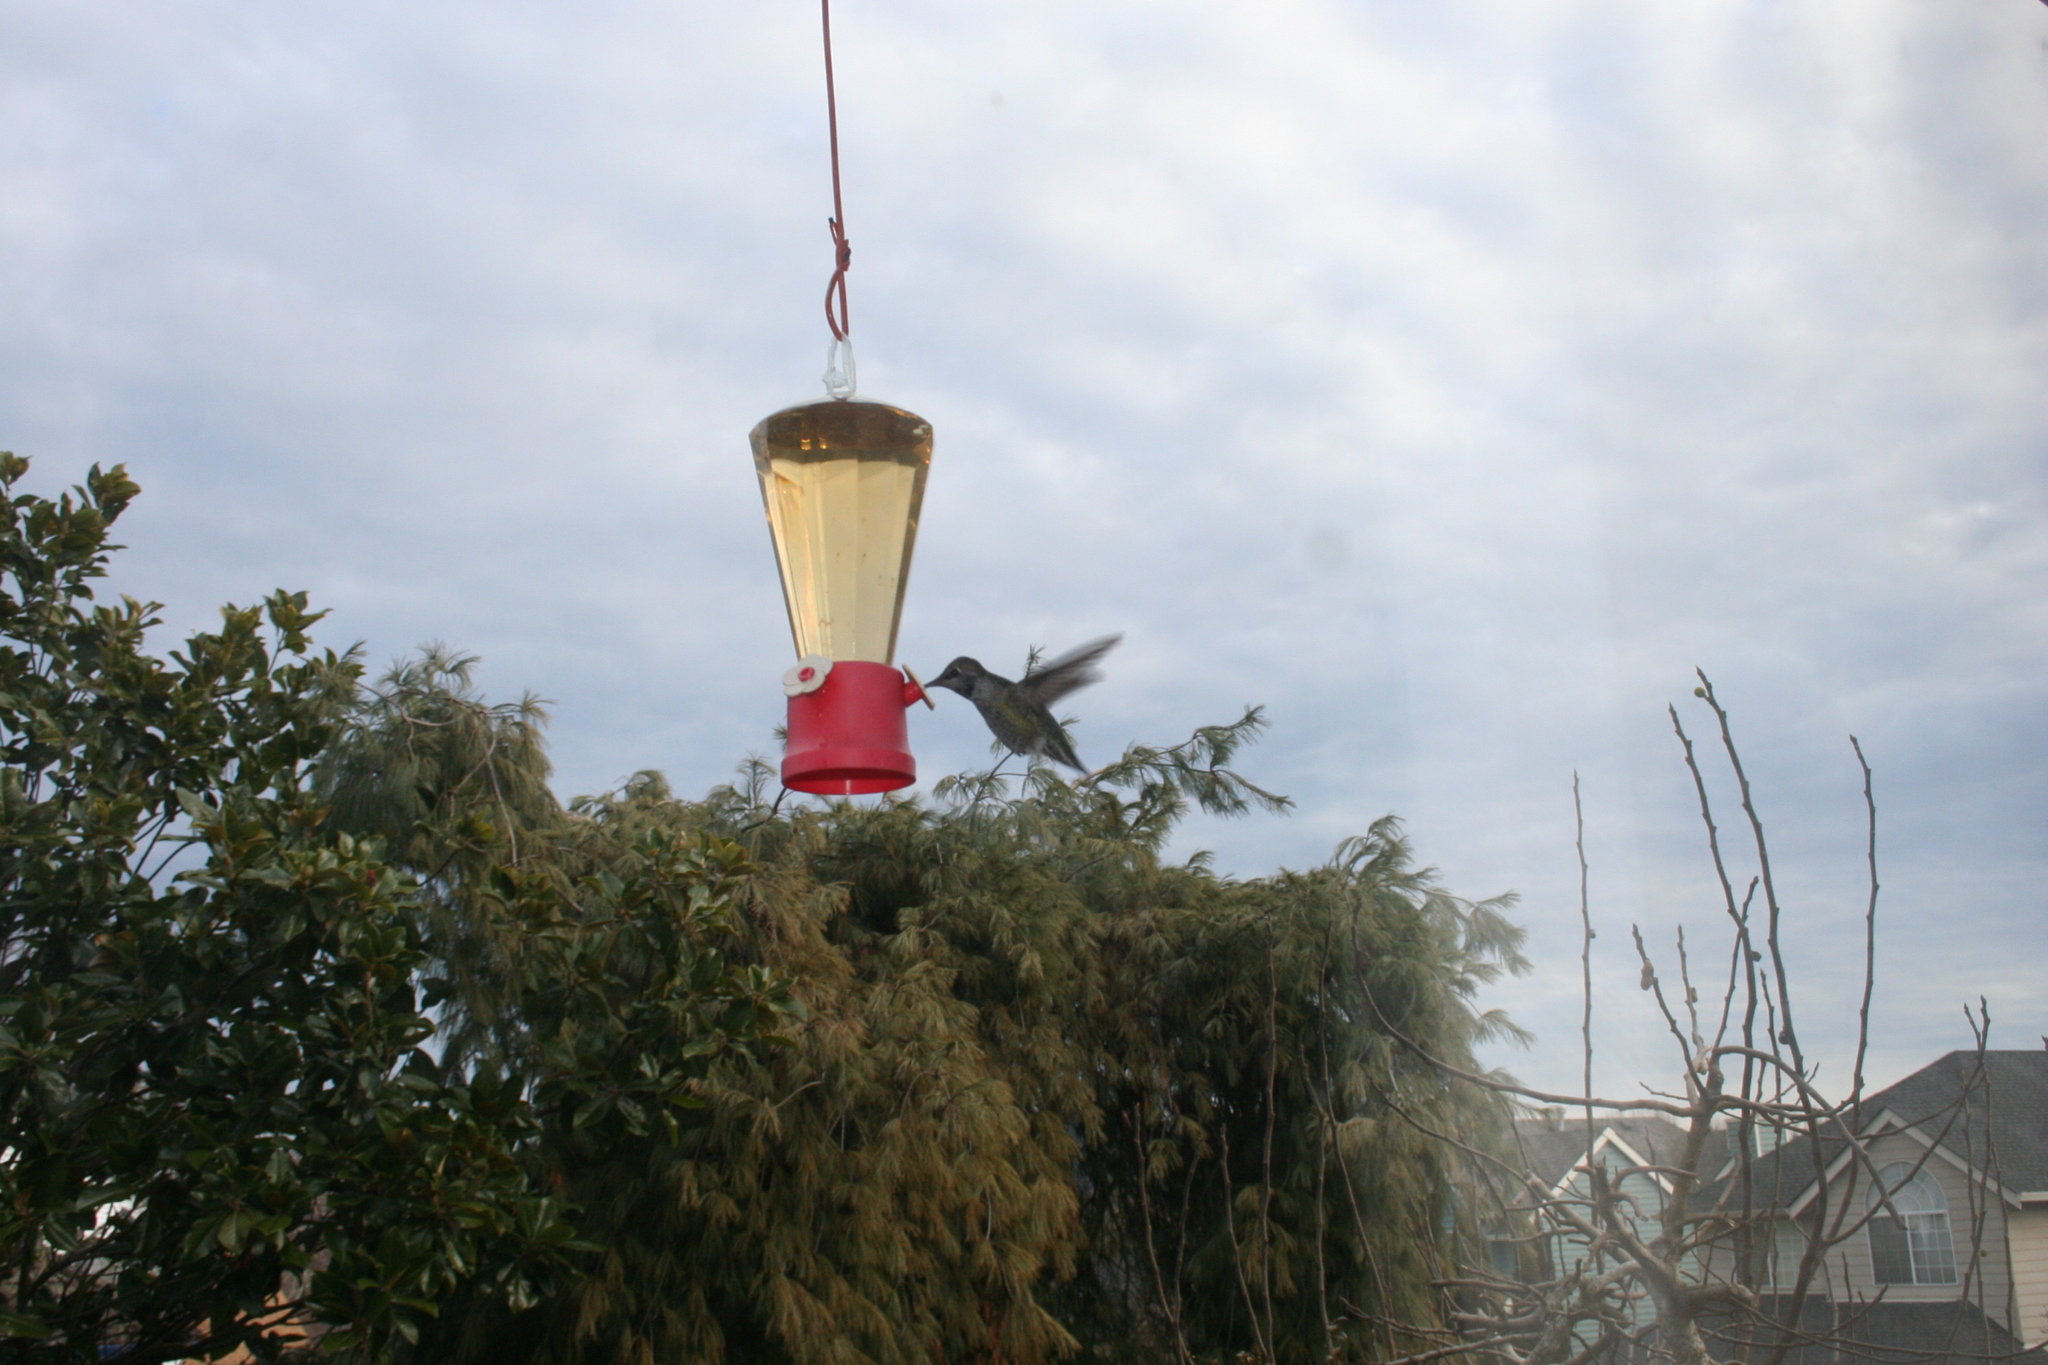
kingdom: Animalia
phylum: Chordata
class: Aves
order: Apodiformes
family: Trochilidae
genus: Calypte
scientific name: Calypte anna
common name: Anna's hummingbird
